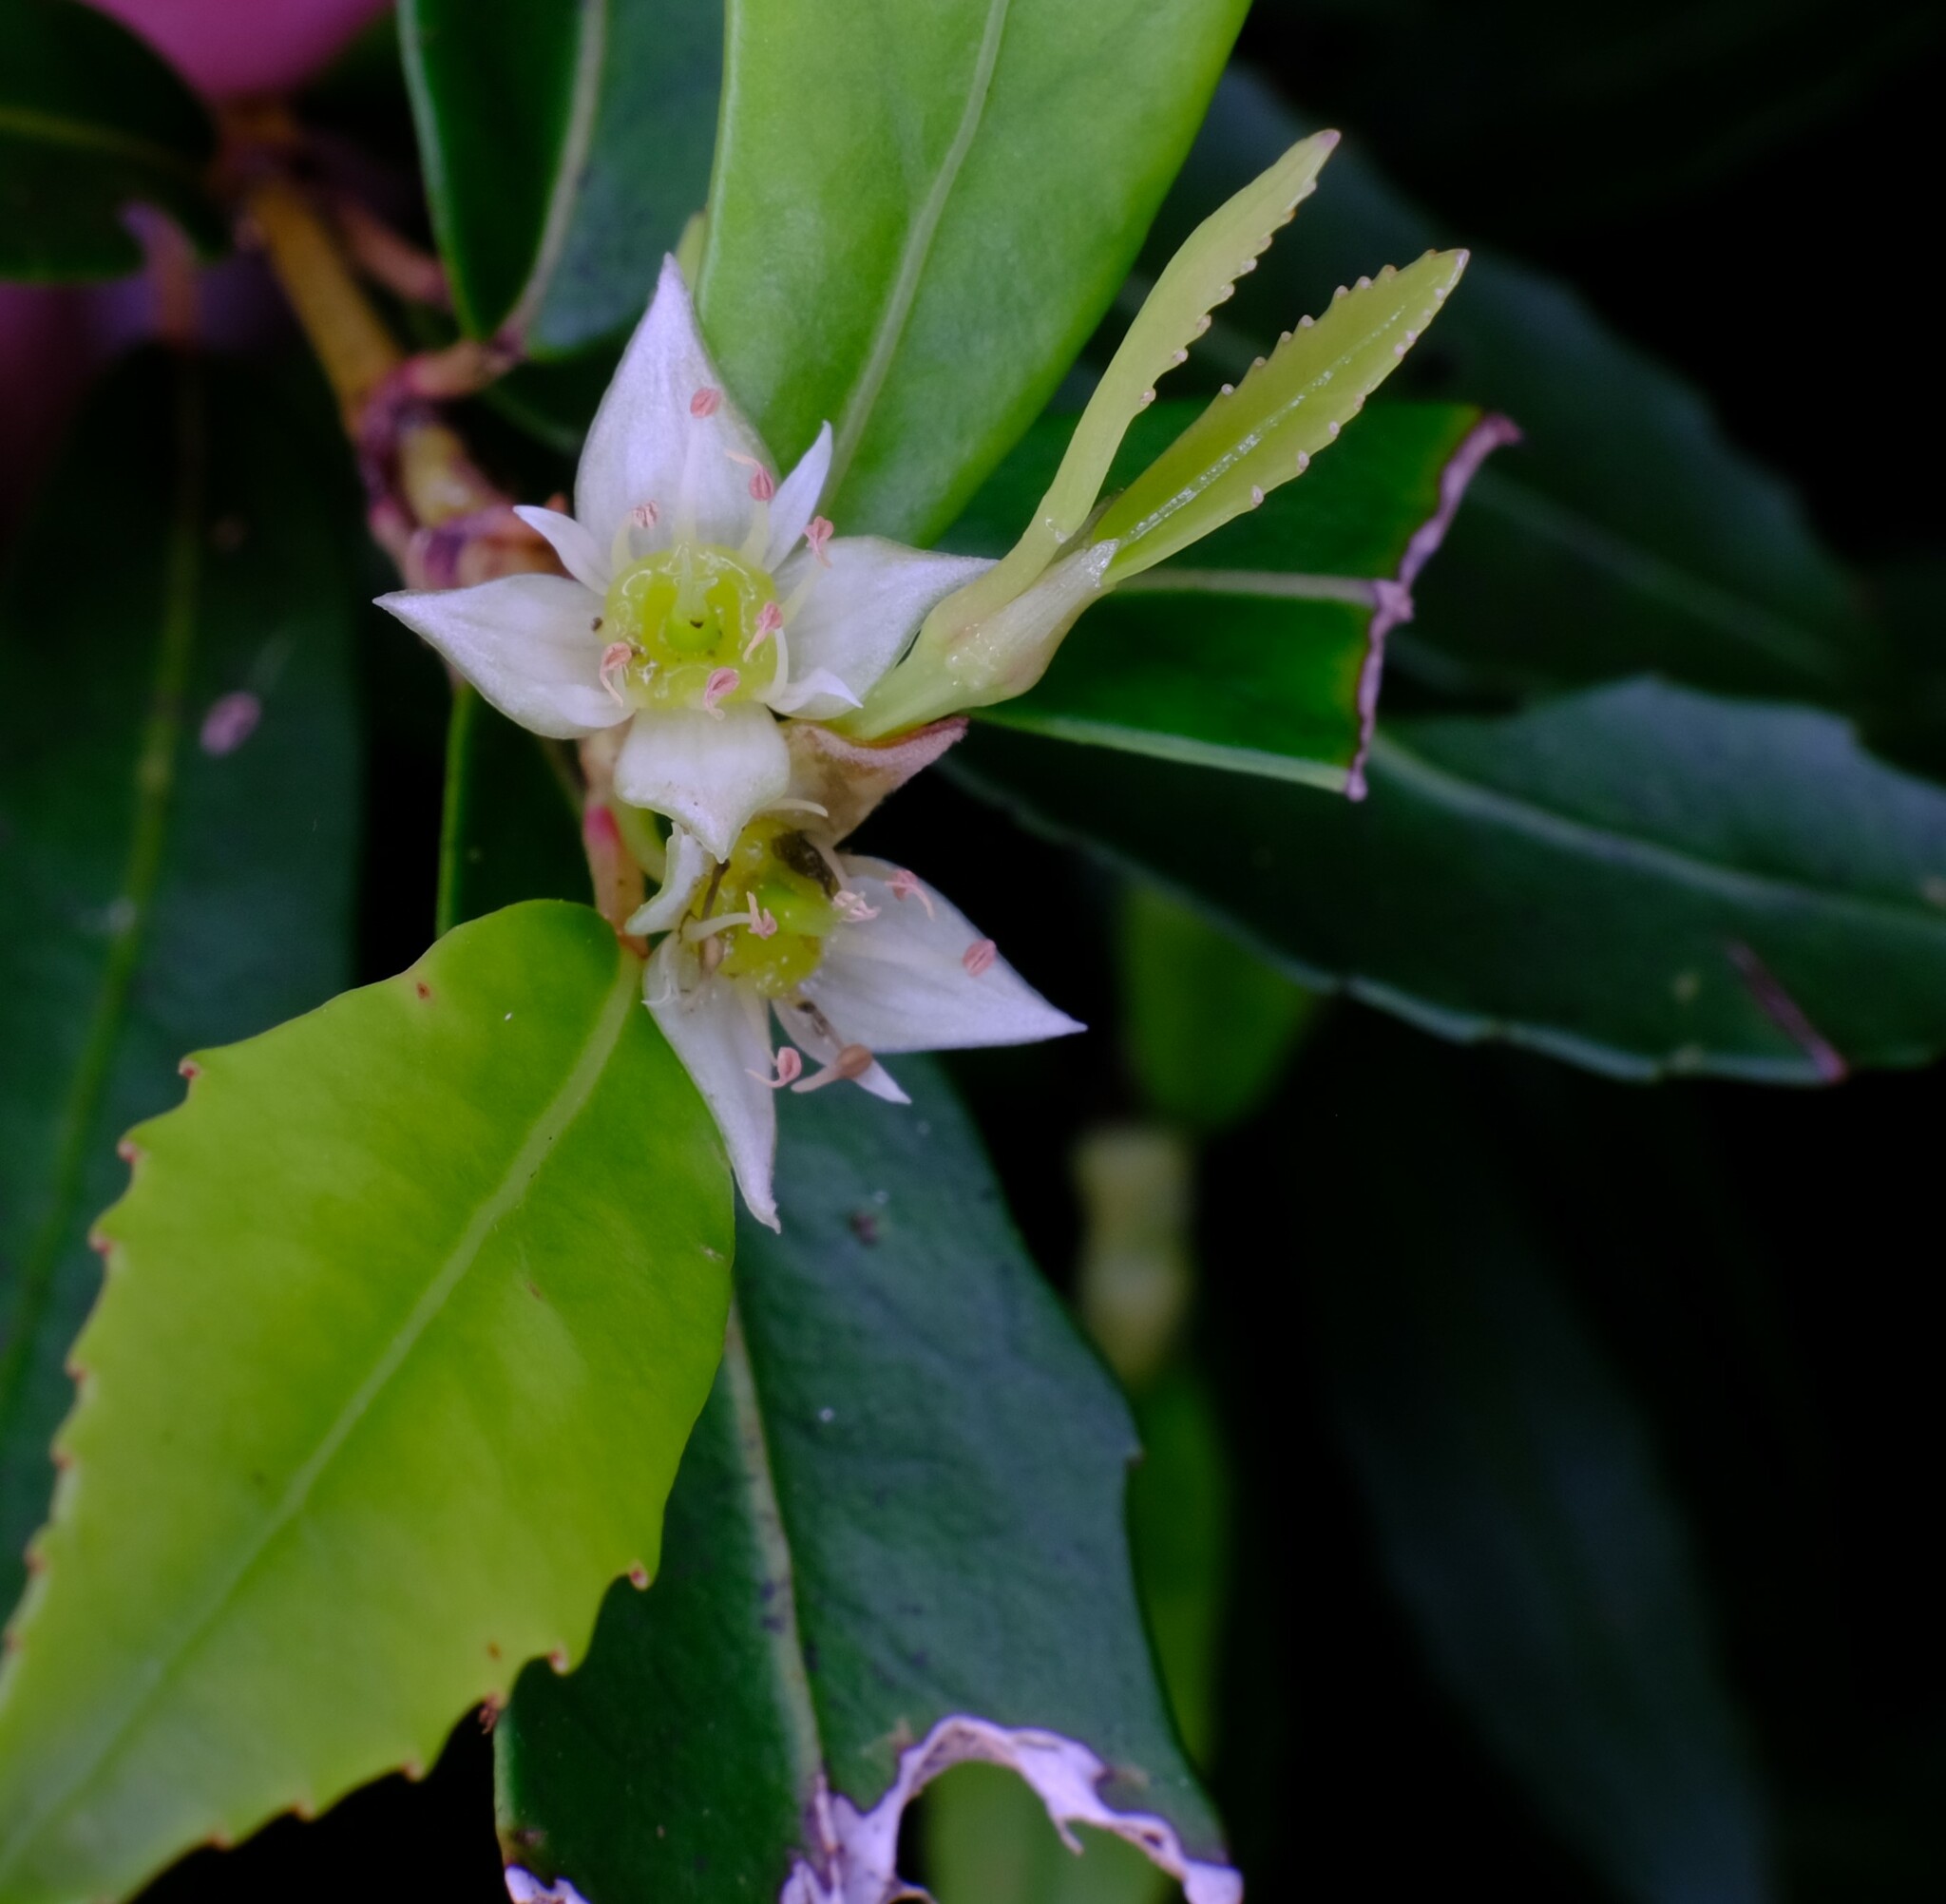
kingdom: Plantae
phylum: Tracheophyta
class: Magnoliopsida
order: Oxalidales
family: Cunoniaceae
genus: Anodopetalum
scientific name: Anodopetalum biglandulosum
